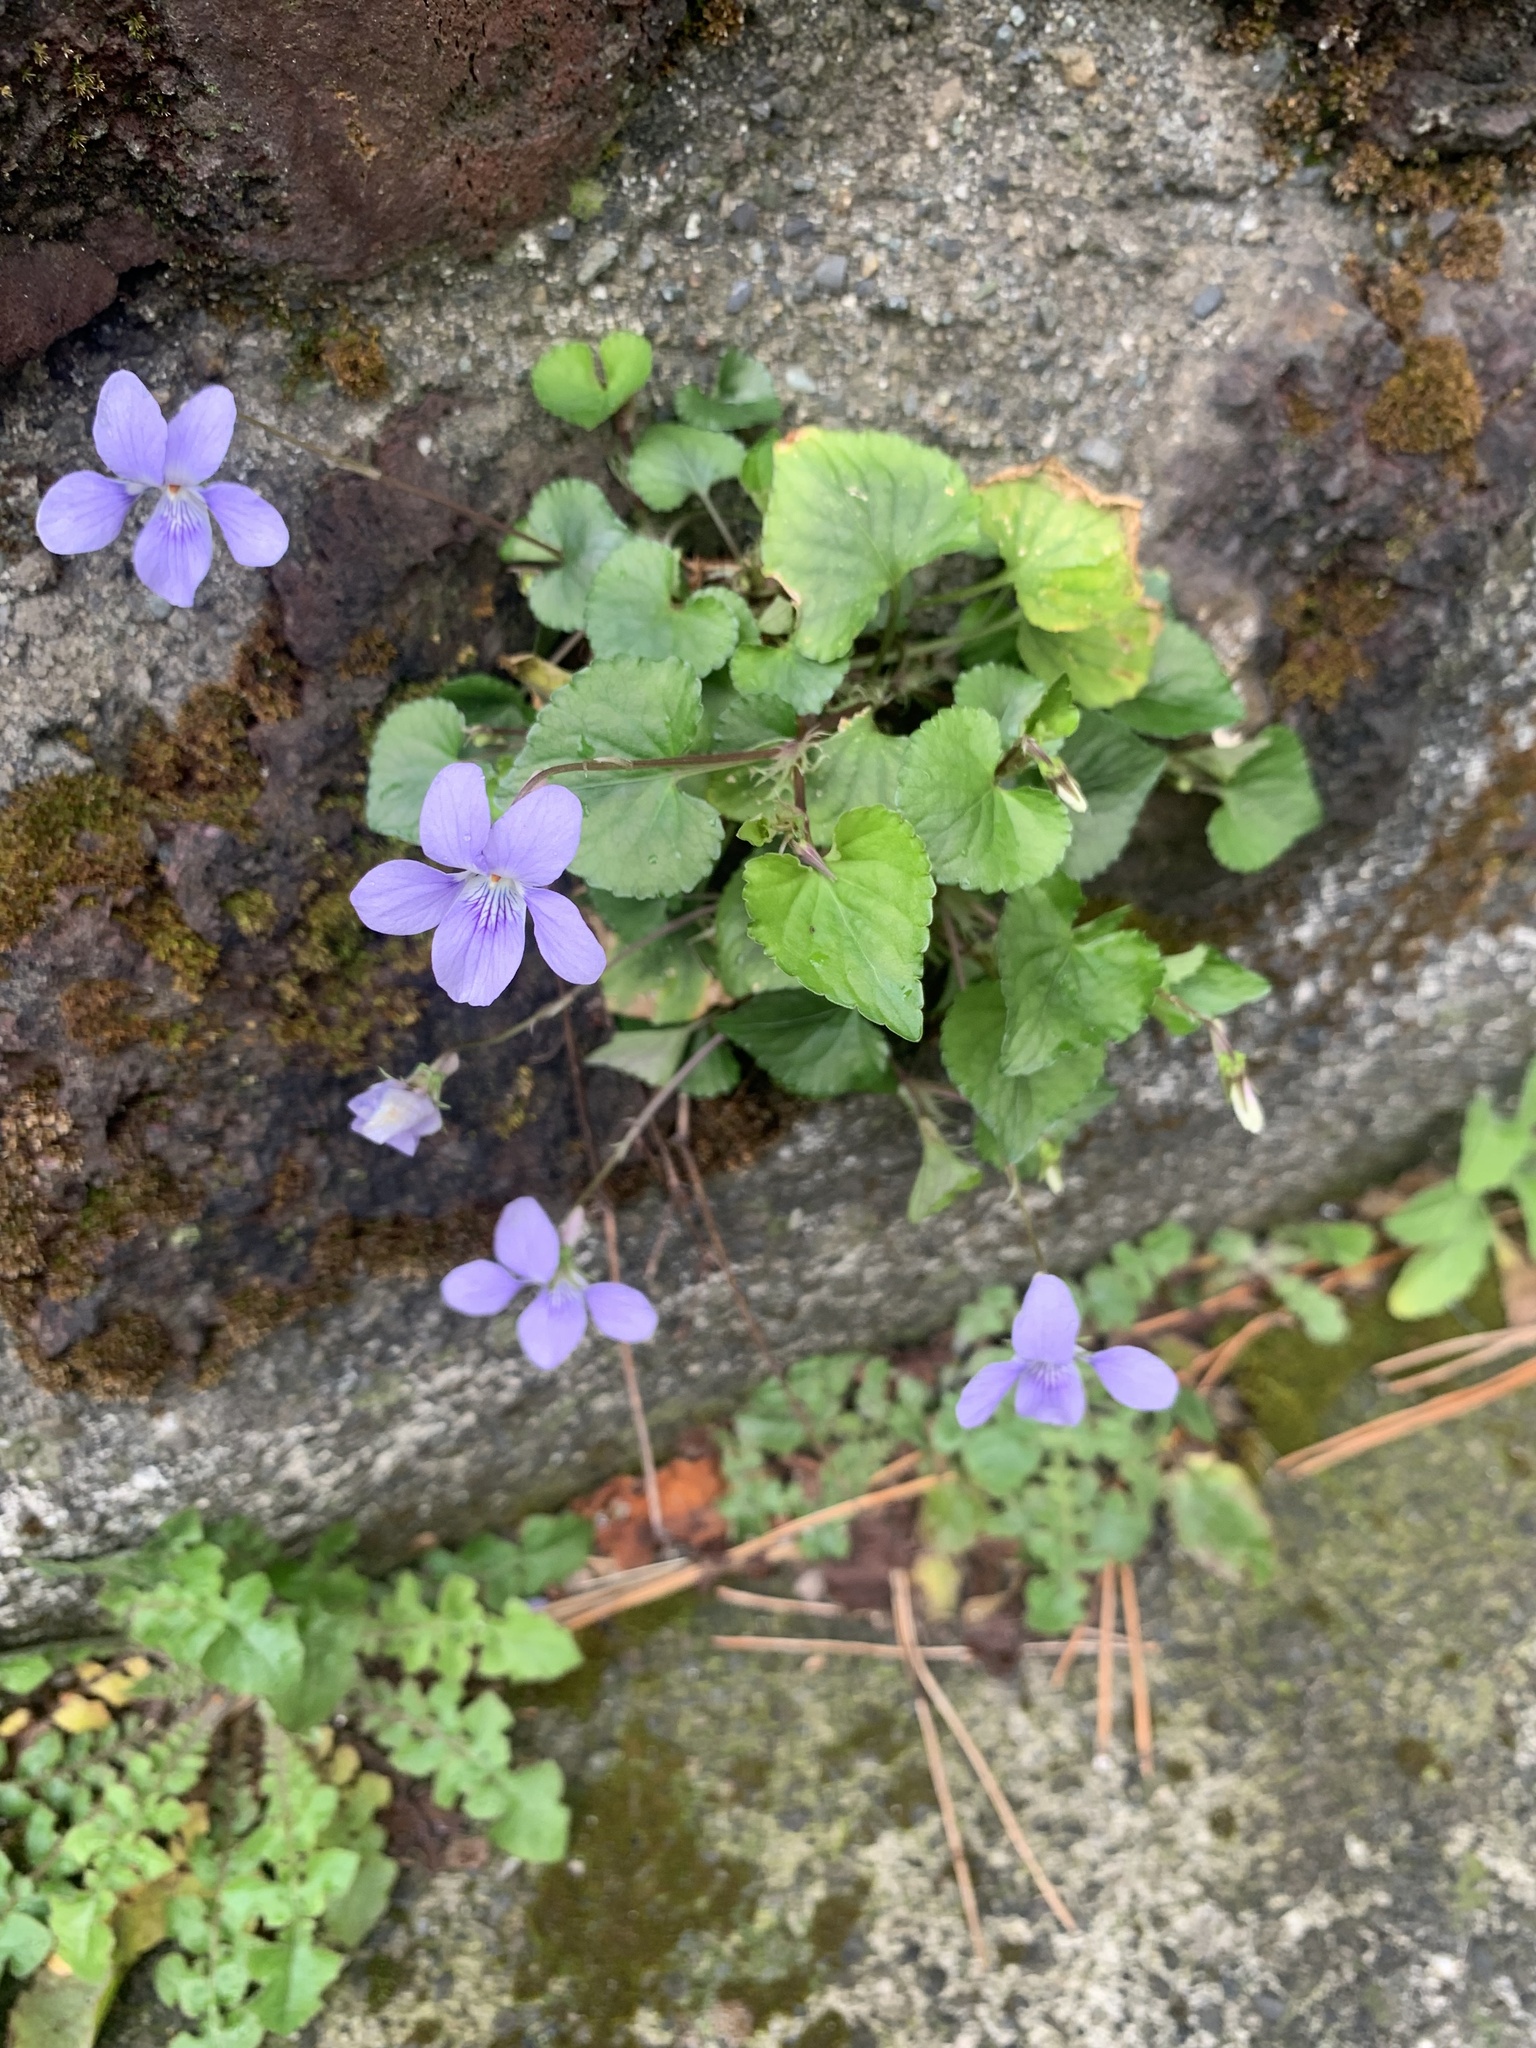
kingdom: Plantae
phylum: Tracheophyta
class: Magnoliopsida
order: Malpighiales
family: Violaceae
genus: Viola
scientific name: Viola grypoceras
